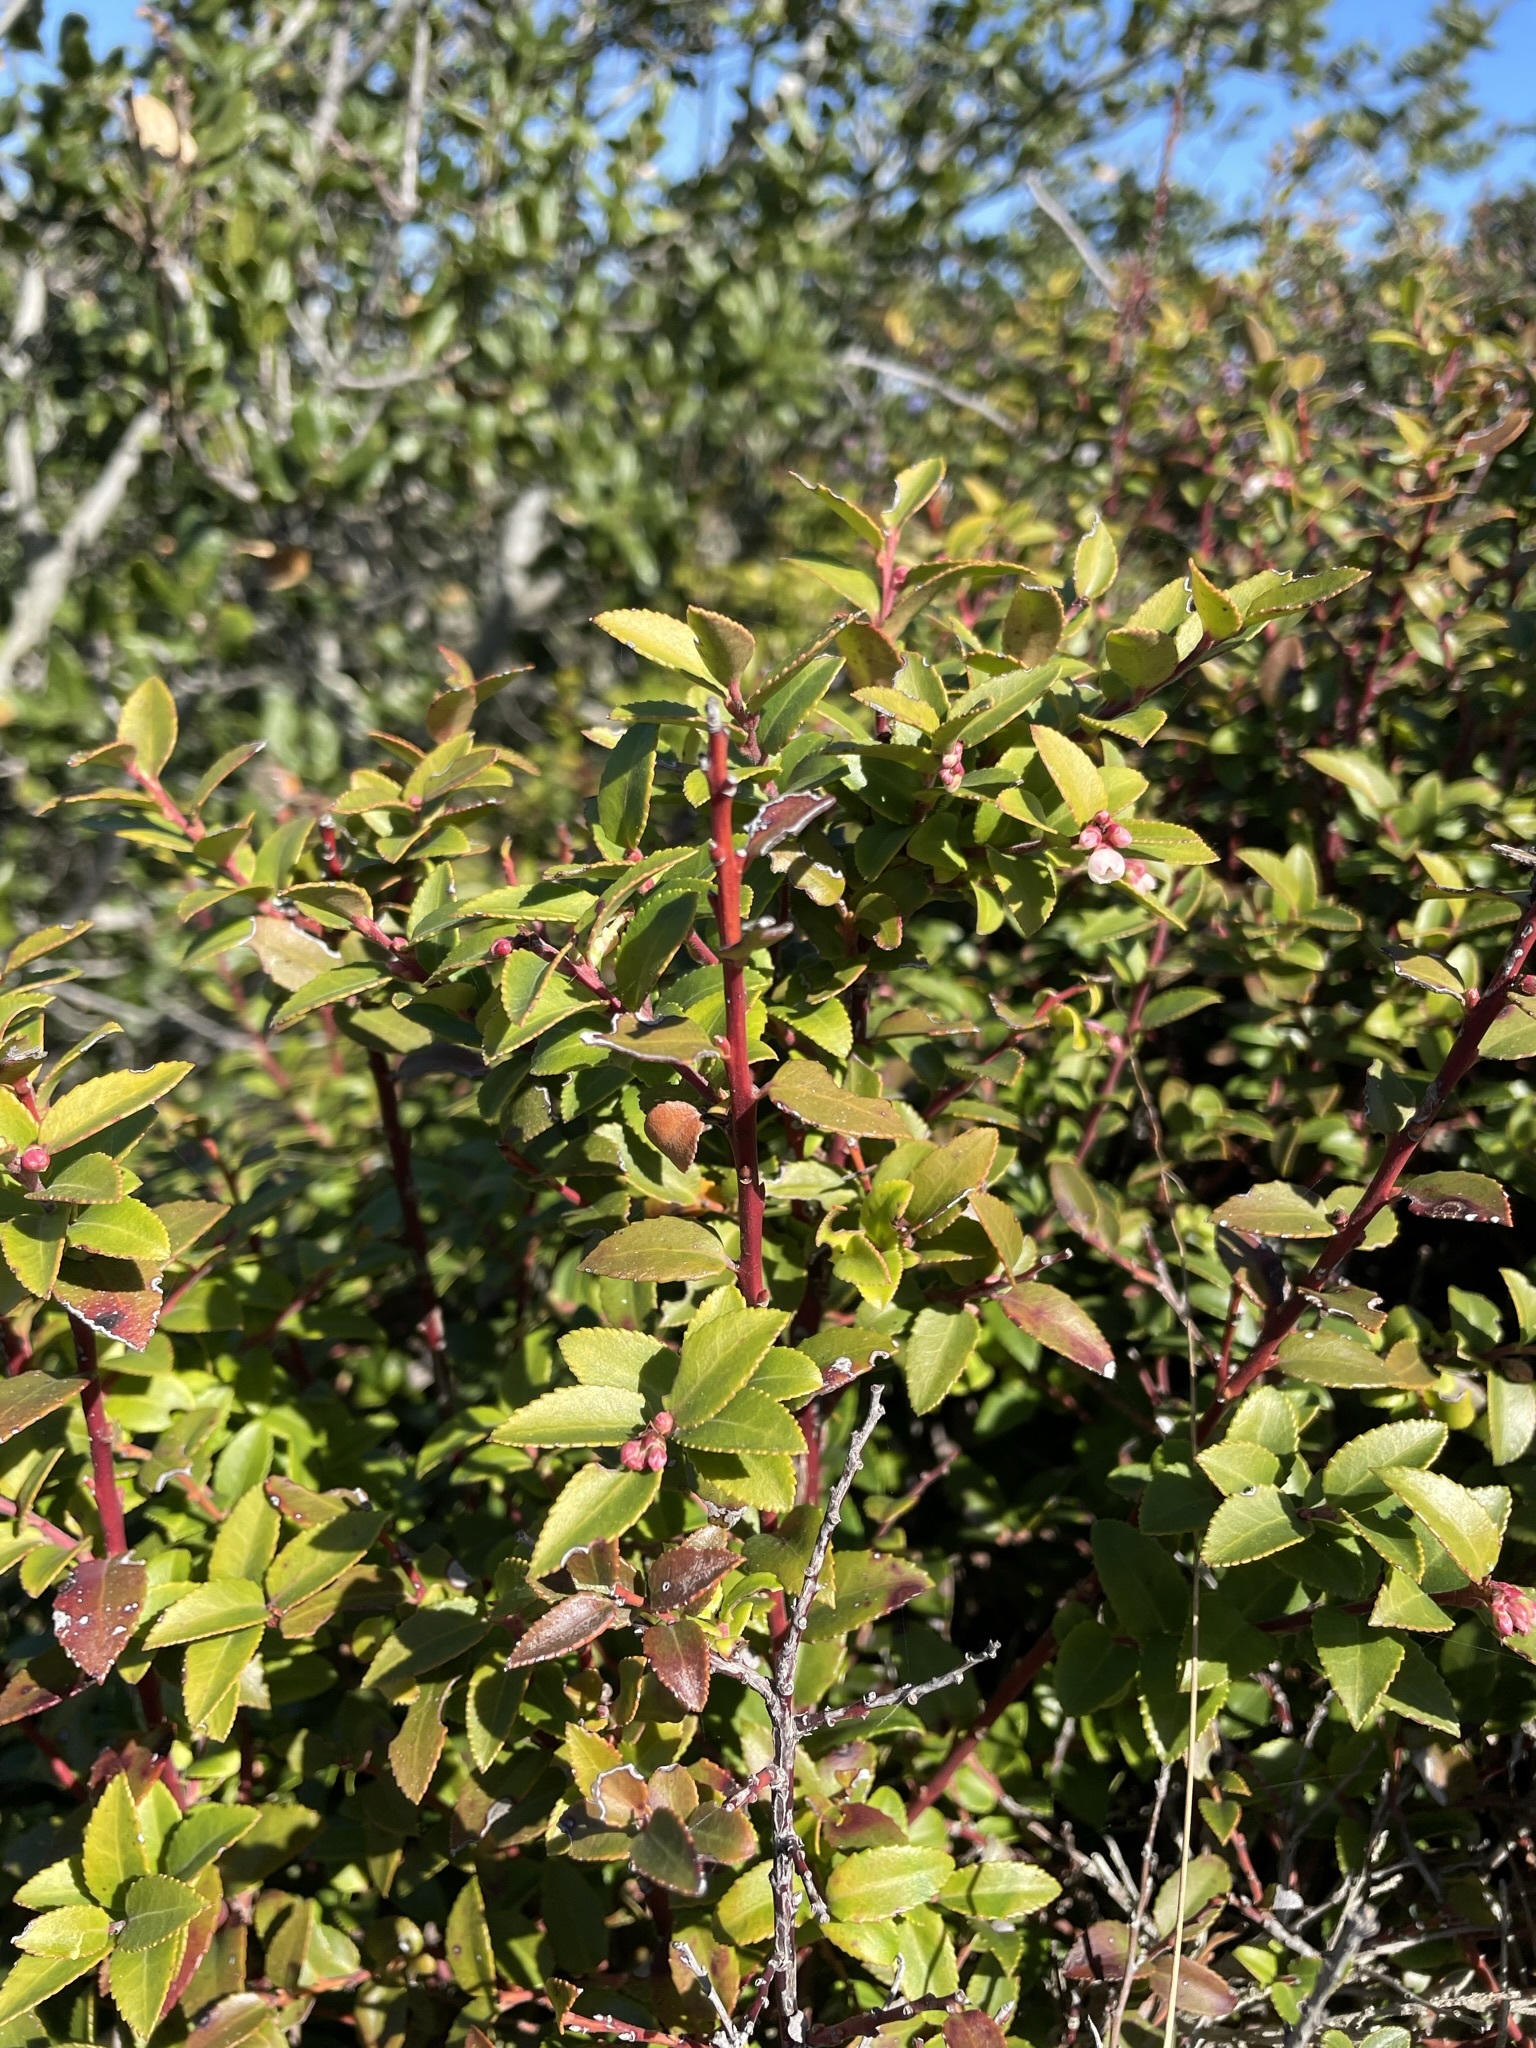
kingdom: Plantae
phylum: Tracheophyta
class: Magnoliopsida
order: Ericales
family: Ericaceae
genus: Vaccinium
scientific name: Vaccinium ovatum
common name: California-huckleberry
